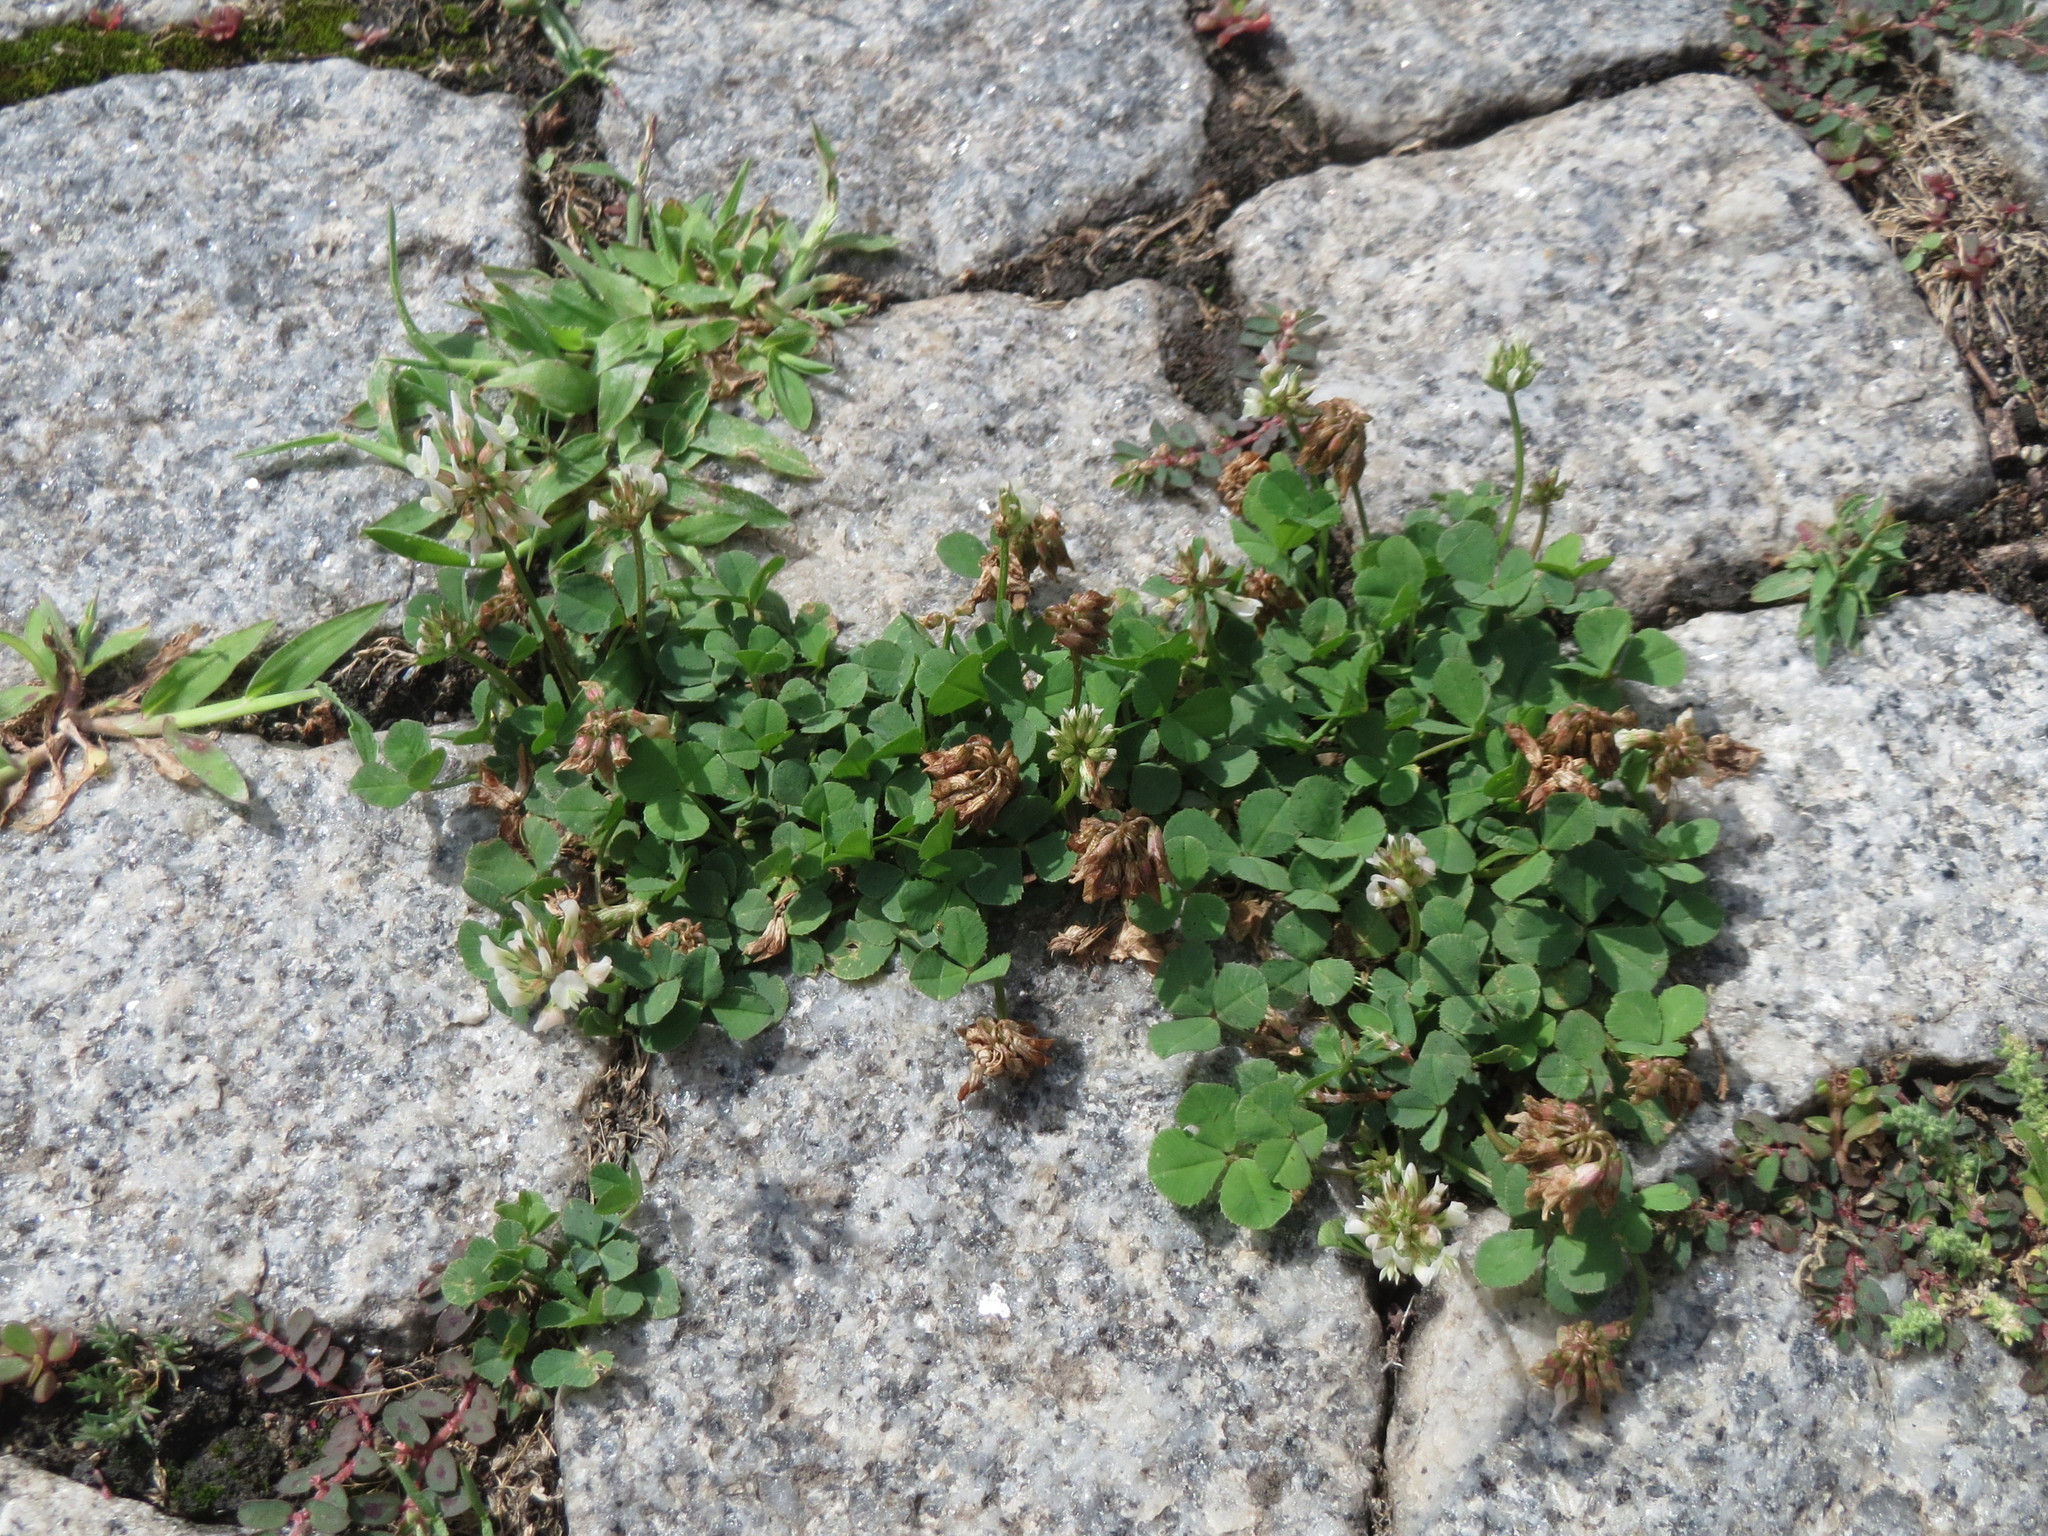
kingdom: Plantae
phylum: Tracheophyta
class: Magnoliopsida
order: Fabales
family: Fabaceae
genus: Trifolium
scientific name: Trifolium repens
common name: White clover
